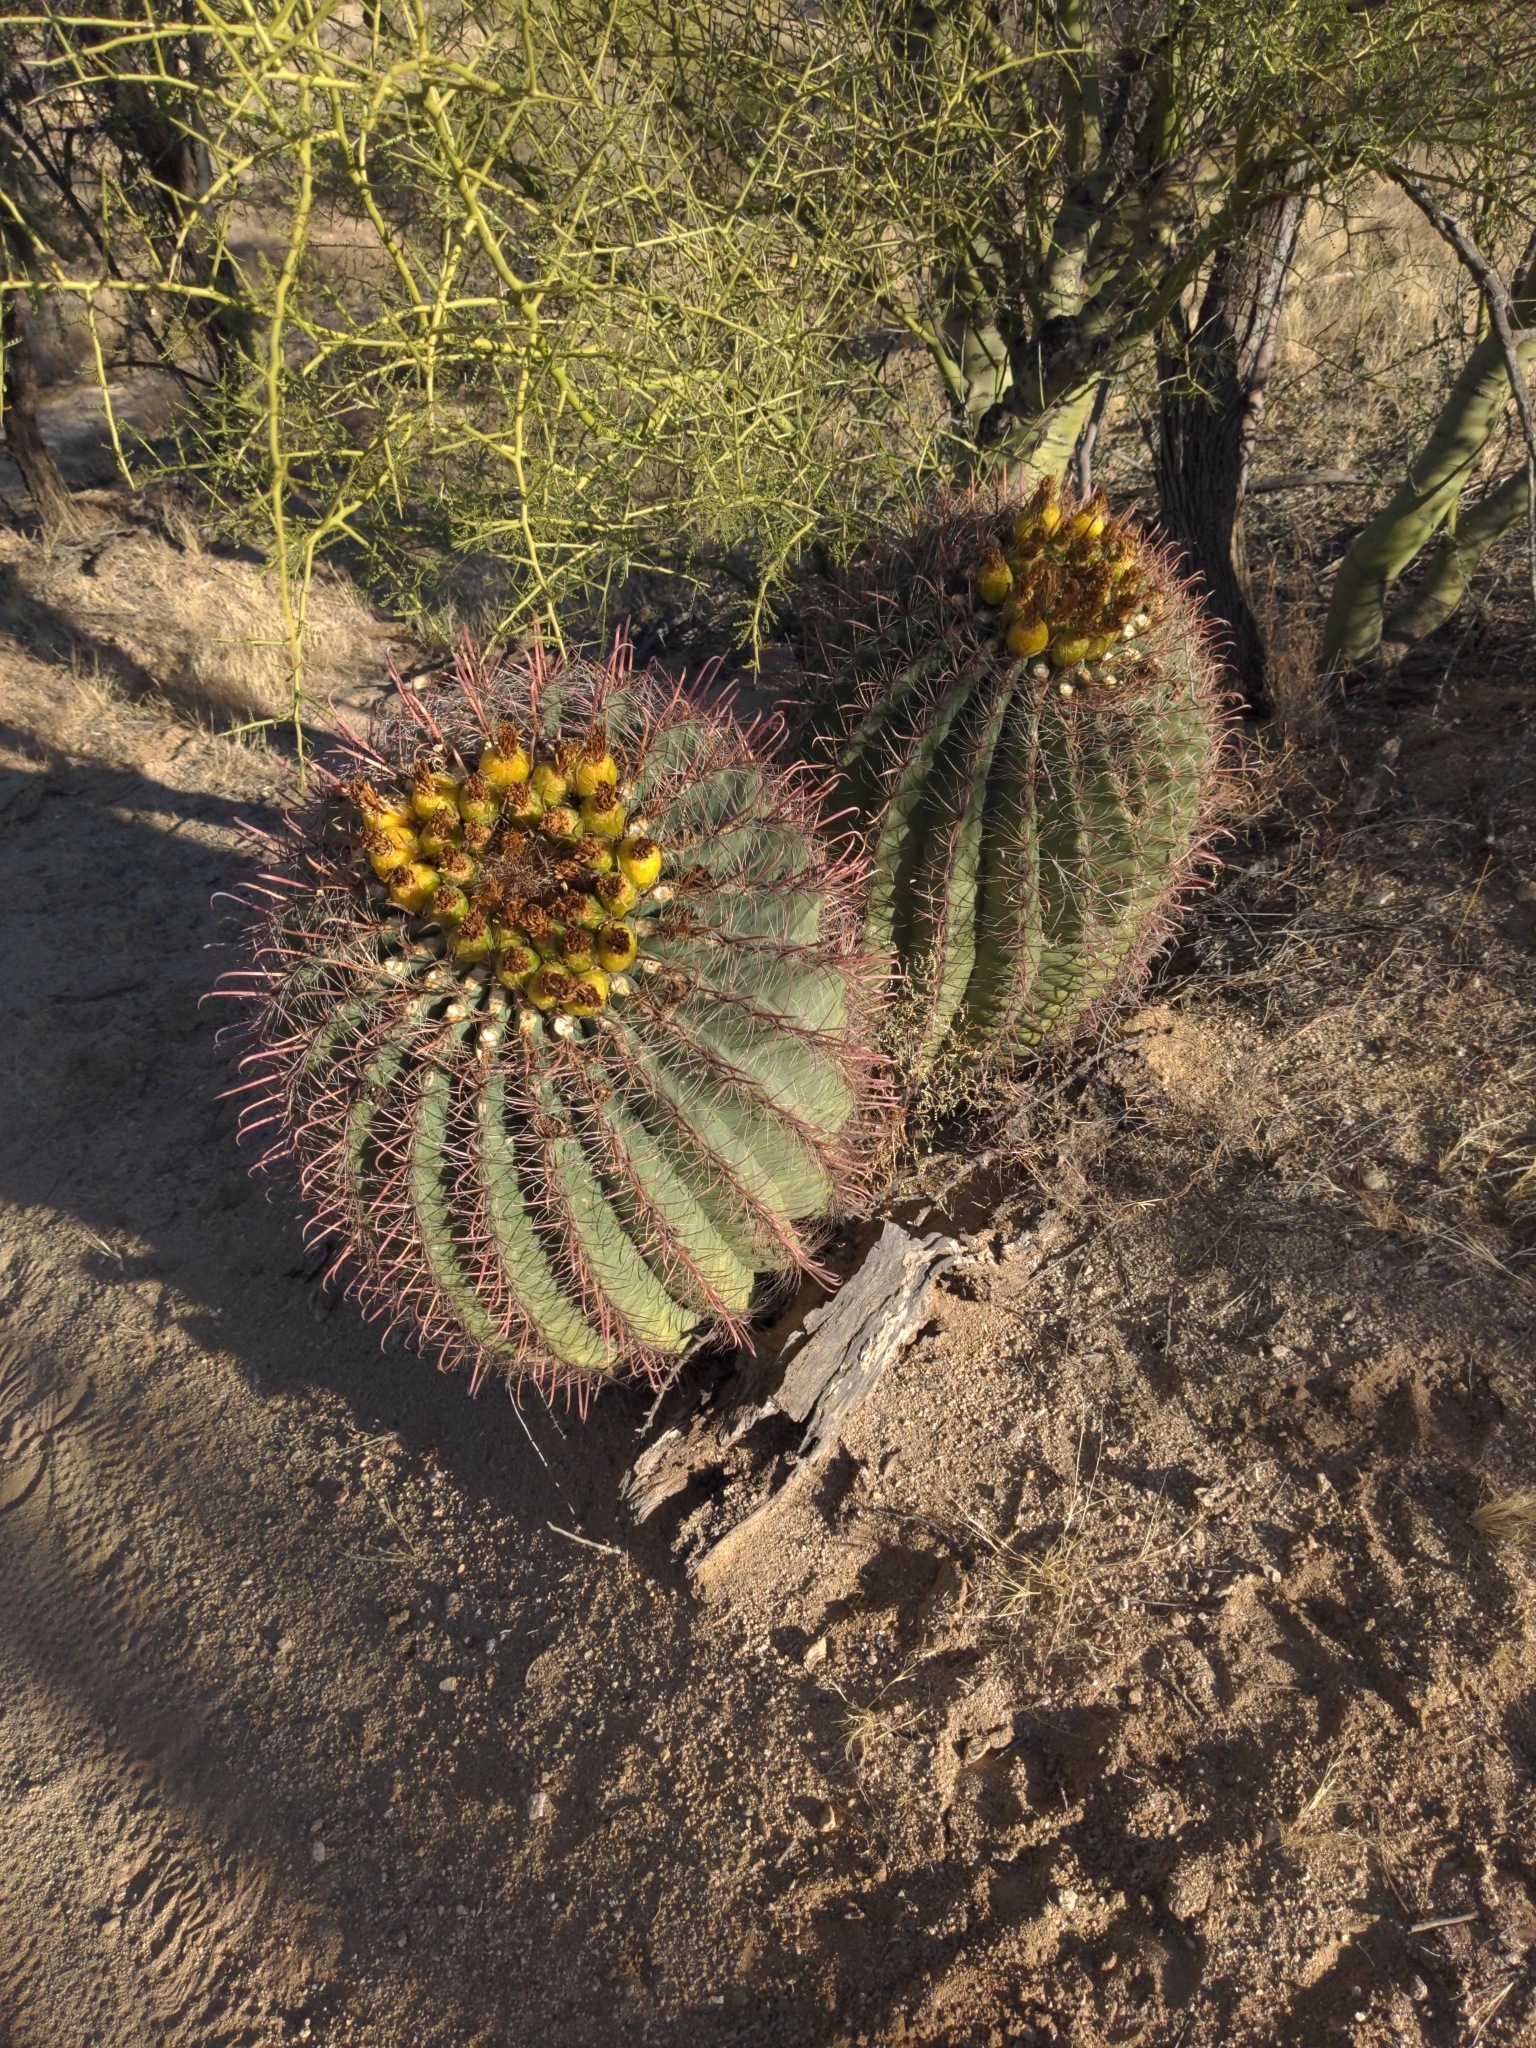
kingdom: Plantae
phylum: Tracheophyta
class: Magnoliopsida
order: Caryophyllales
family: Cactaceae
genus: Ferocactus
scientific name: Ferocactus wislizeni
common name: Candy barrel cactus
